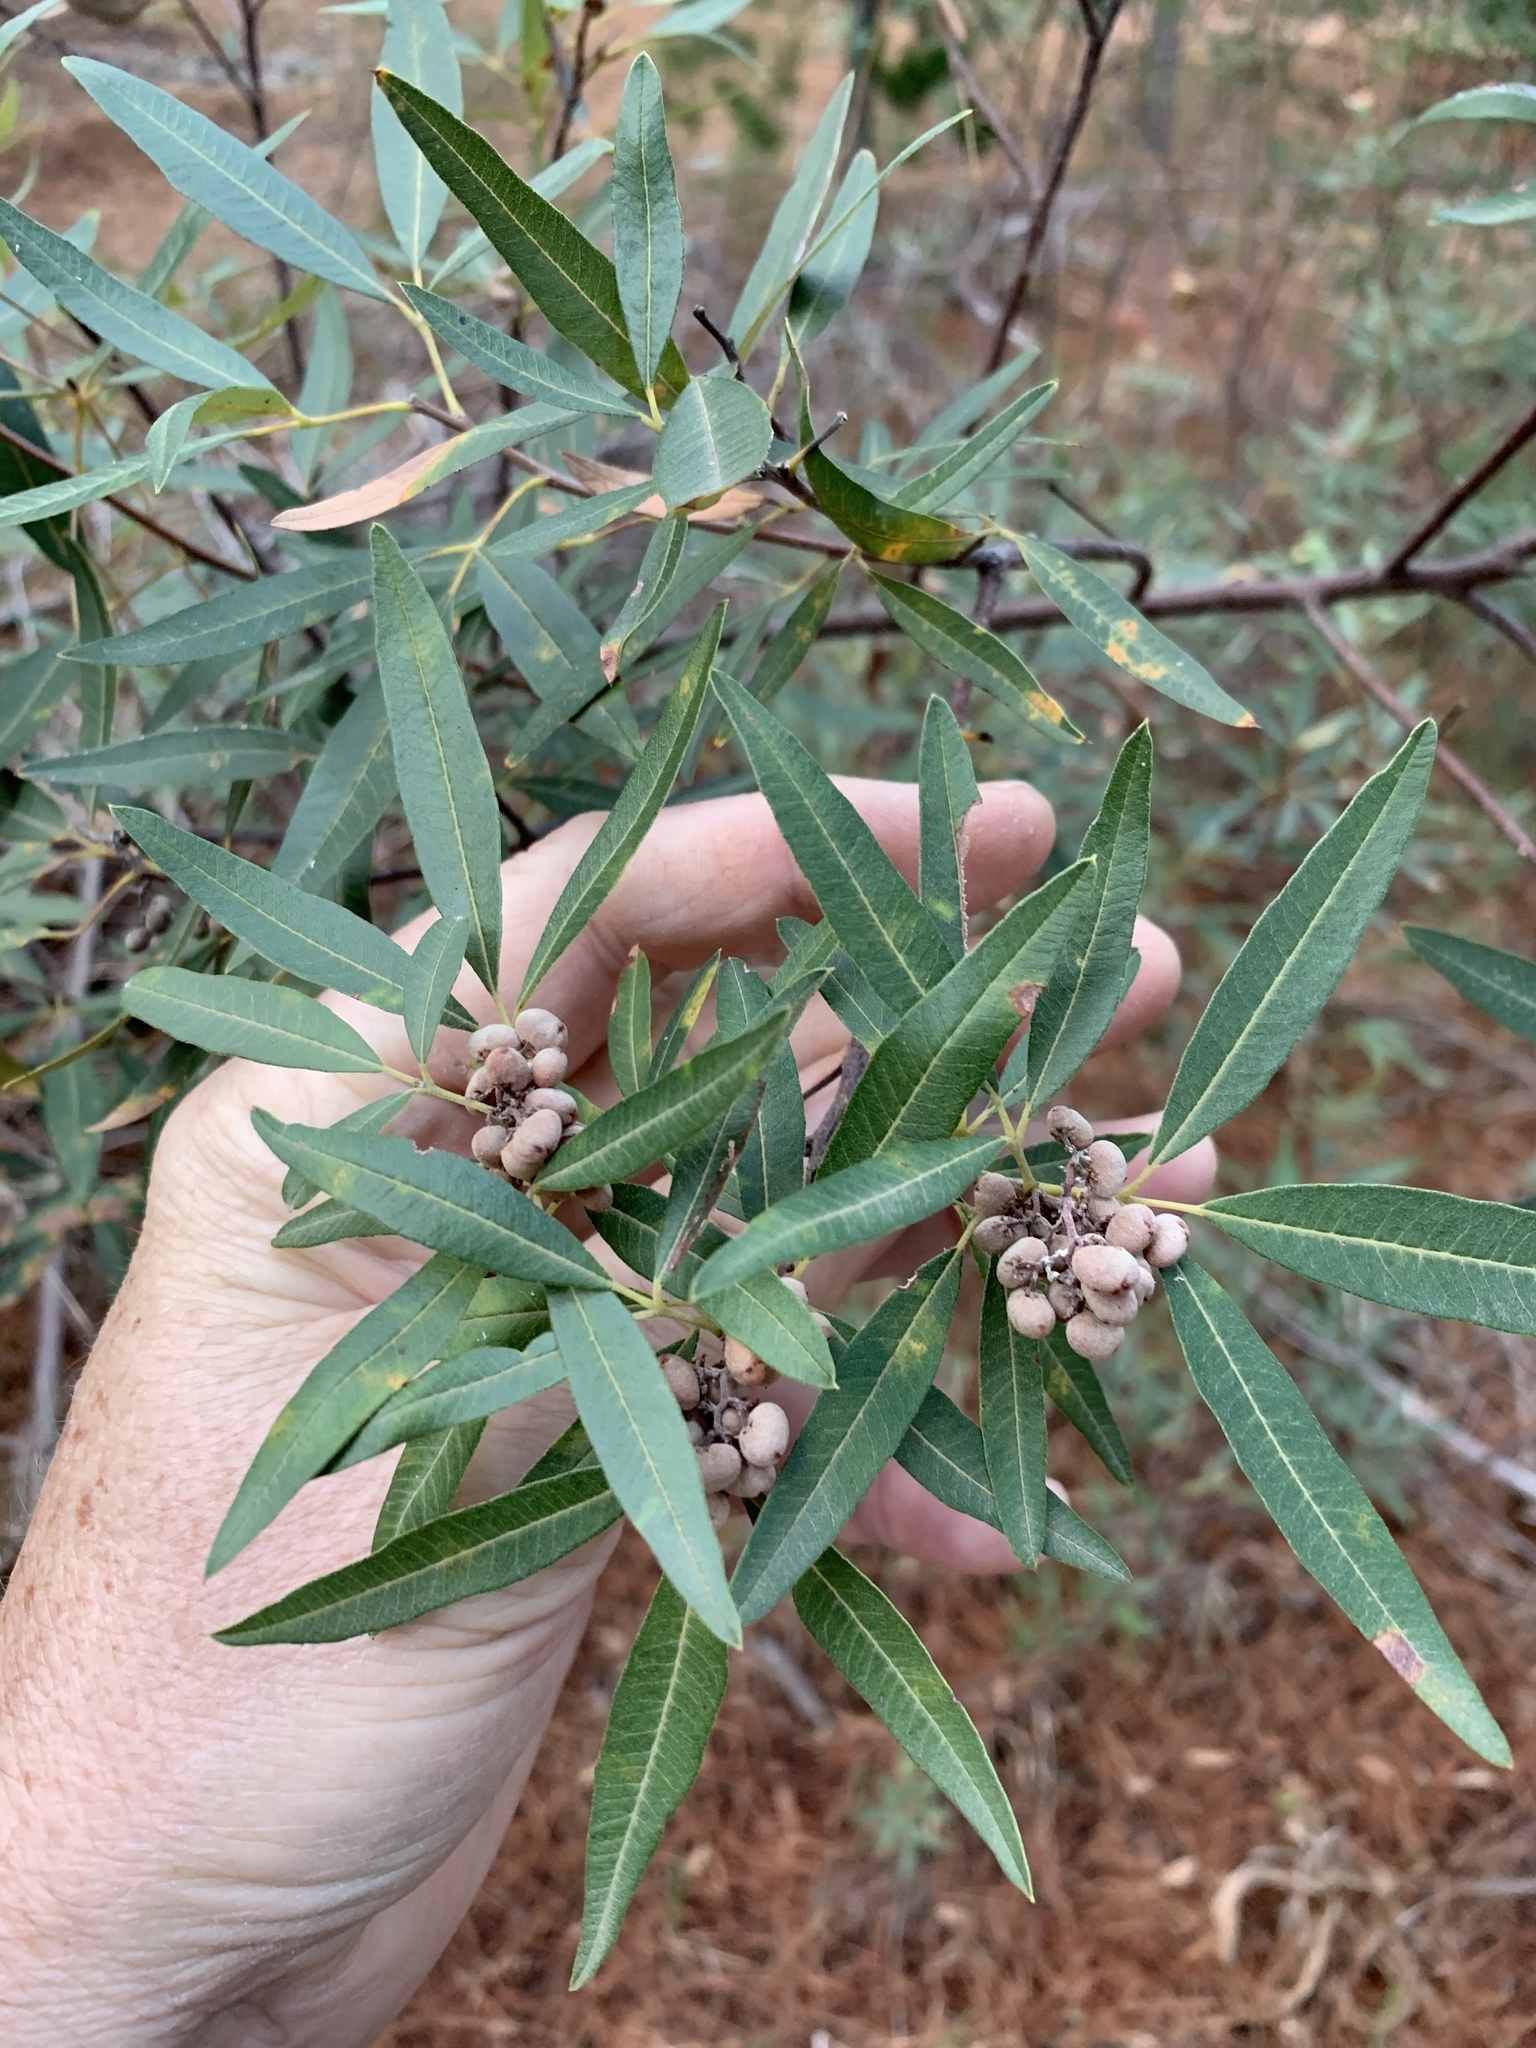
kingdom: Plantae
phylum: Tracheophyta
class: Magnoliopsida
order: Sapindales
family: Anacardiaceae
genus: Searsia
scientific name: Searsia angustifolia
